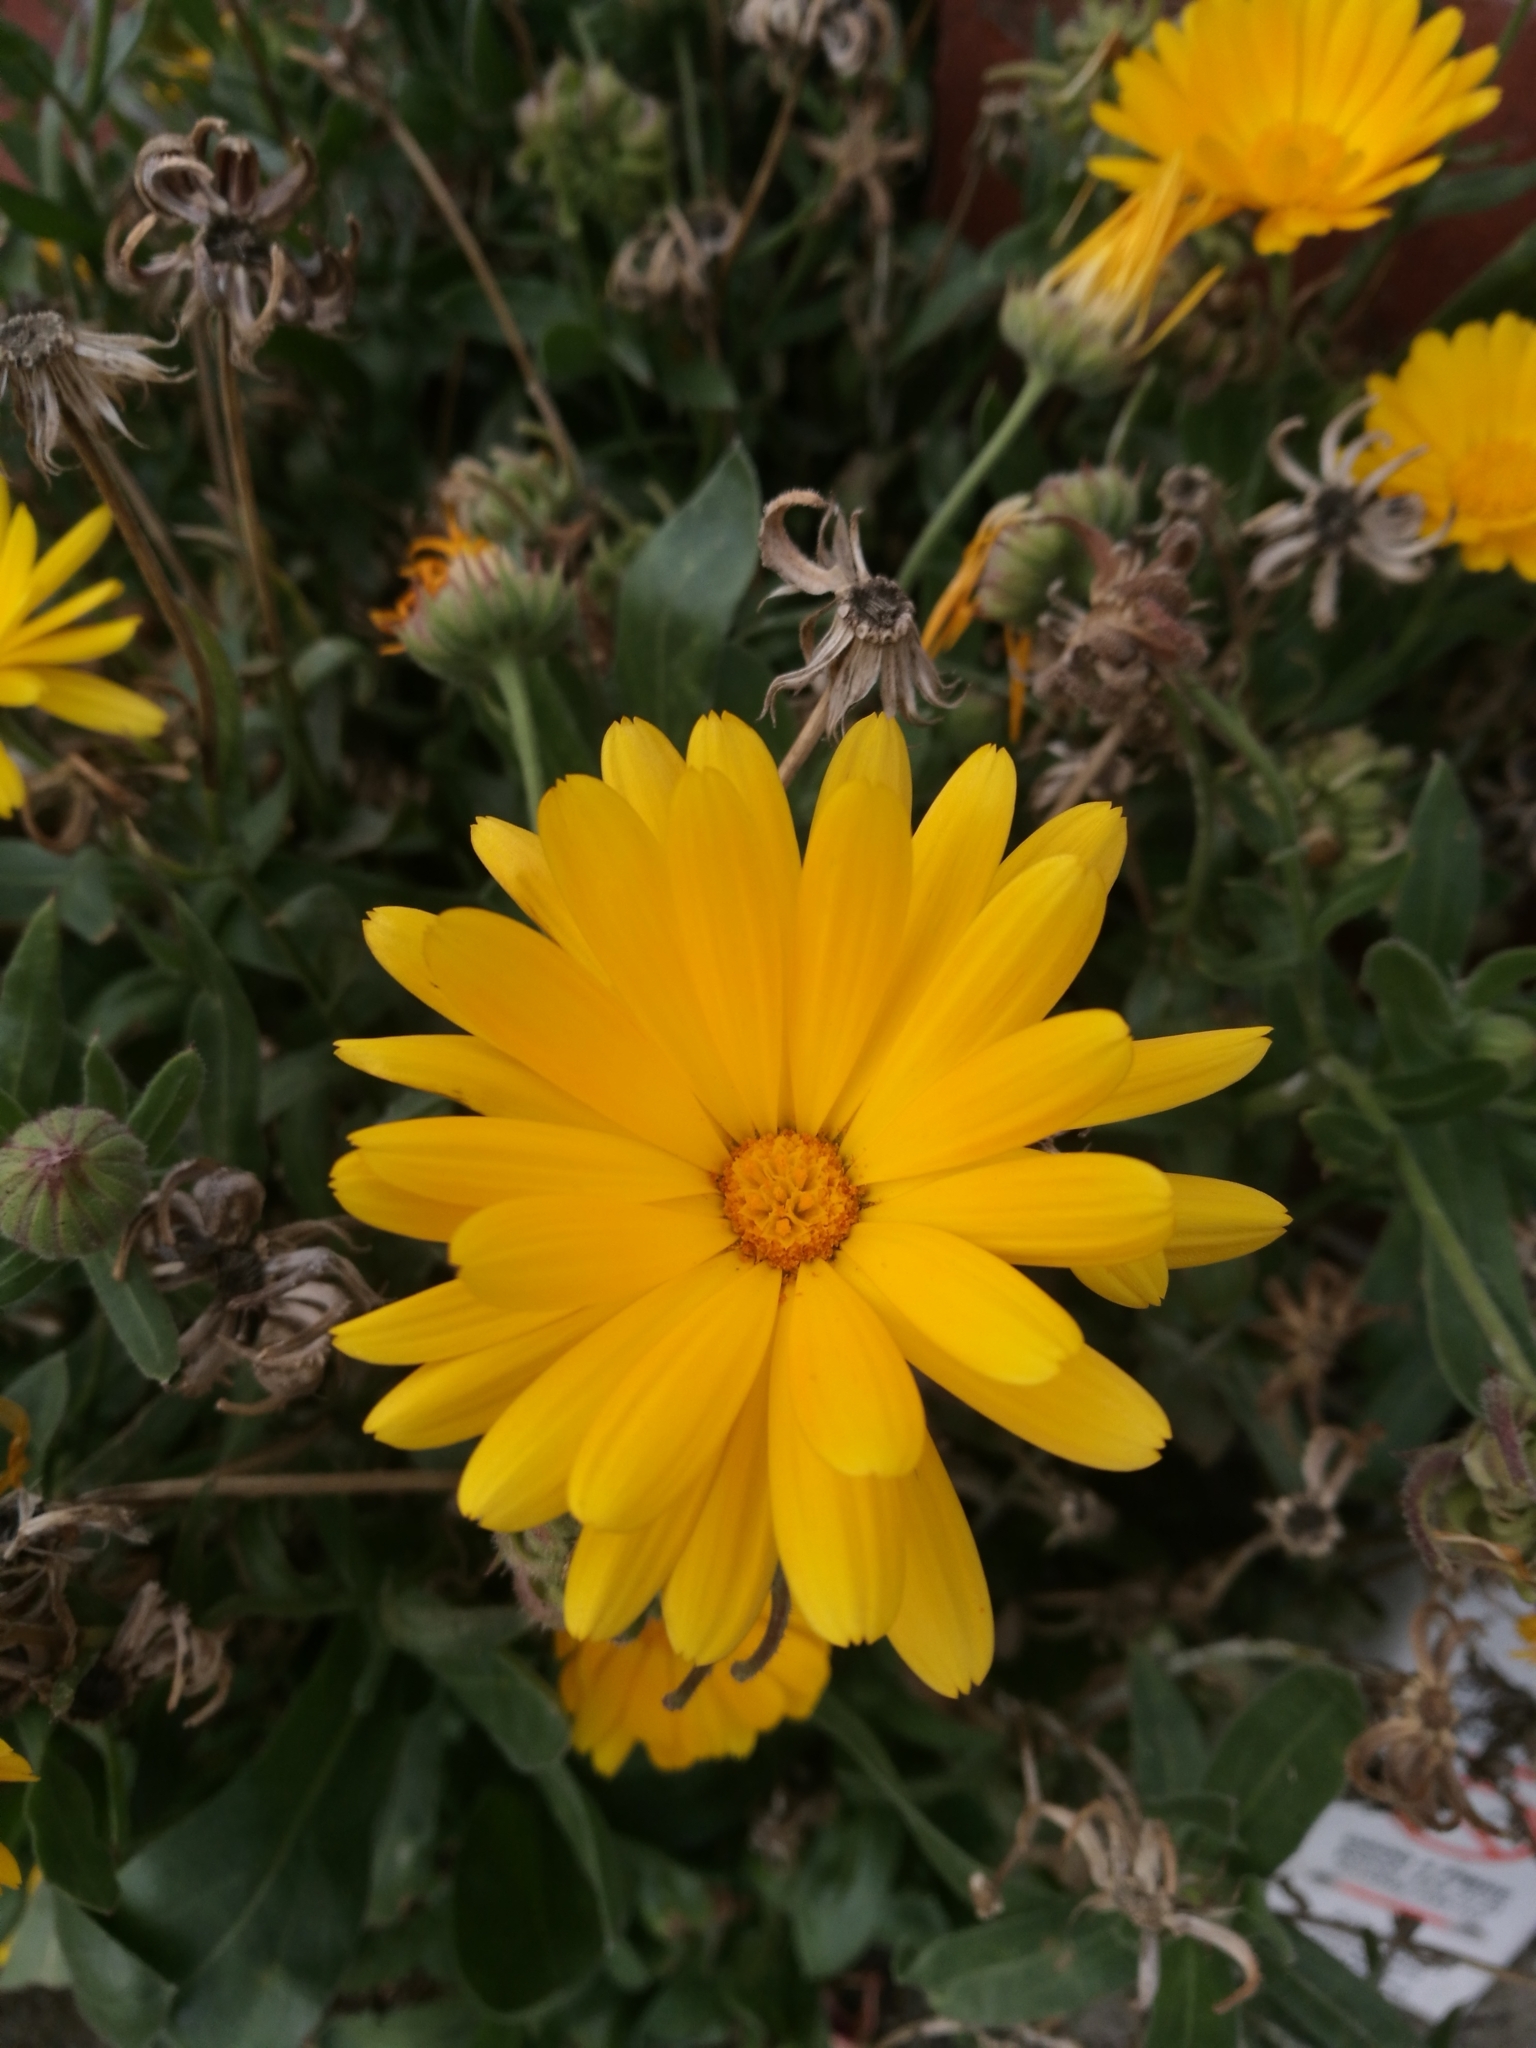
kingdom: Plantae
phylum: Tracheophyta
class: Magnoliopsida
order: Asterales
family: Asteraceae
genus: Calendula
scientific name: Calendula officinalis
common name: Pot marigold
